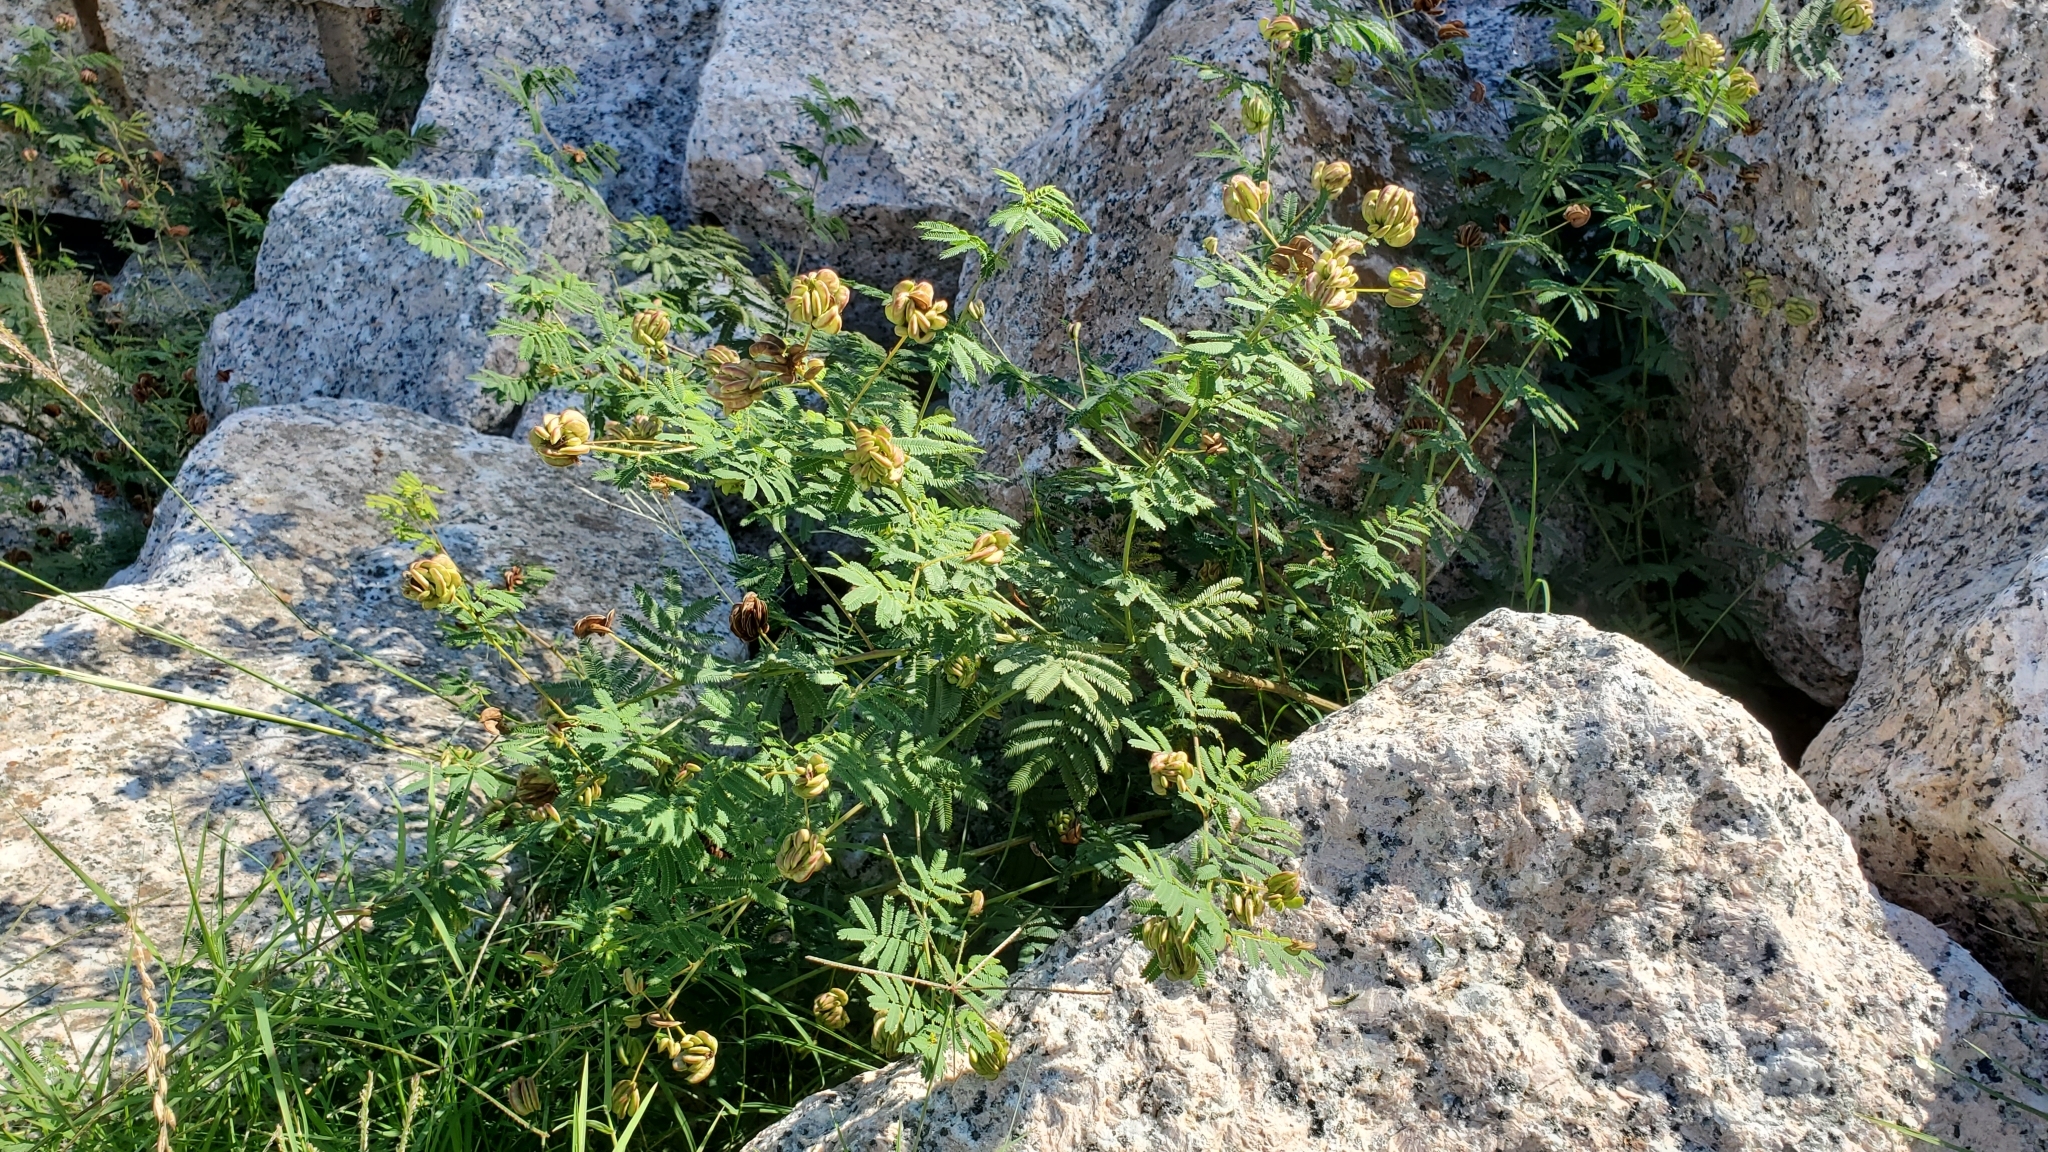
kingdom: Plantae
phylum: Tracheophyta
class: Magnoliopsida
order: Fabales
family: Fabaceae
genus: Desmanthus
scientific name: Desmanthus illinoensis
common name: Illinois bundle-flower
